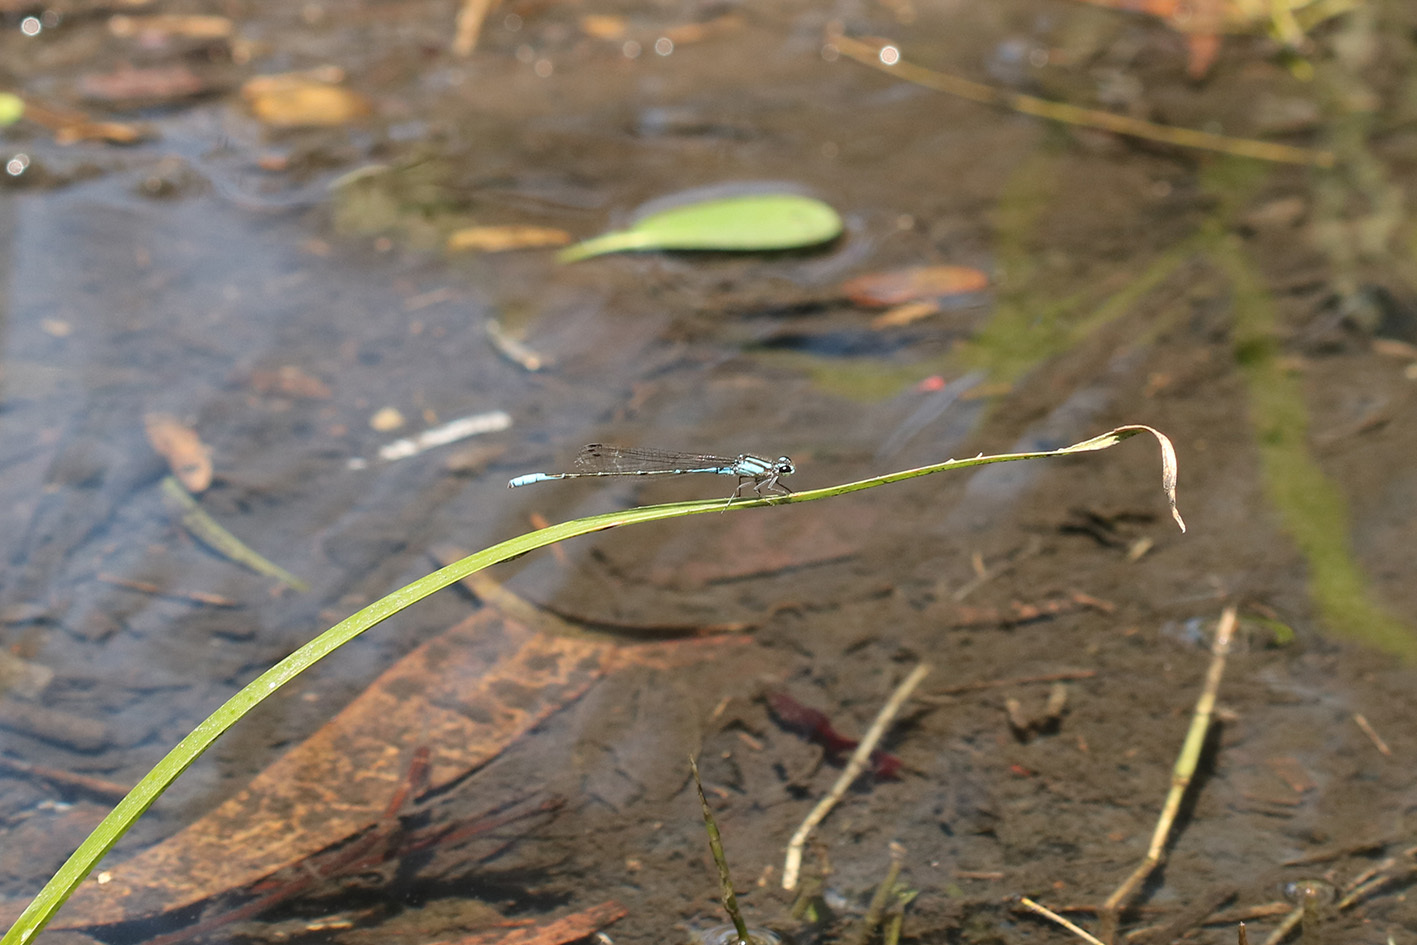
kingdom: Animalia
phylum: Arthropoda
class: Insecta
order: Odonata
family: Coenagrionidae
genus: Acanthagrion
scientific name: Acanthagrion floridense
